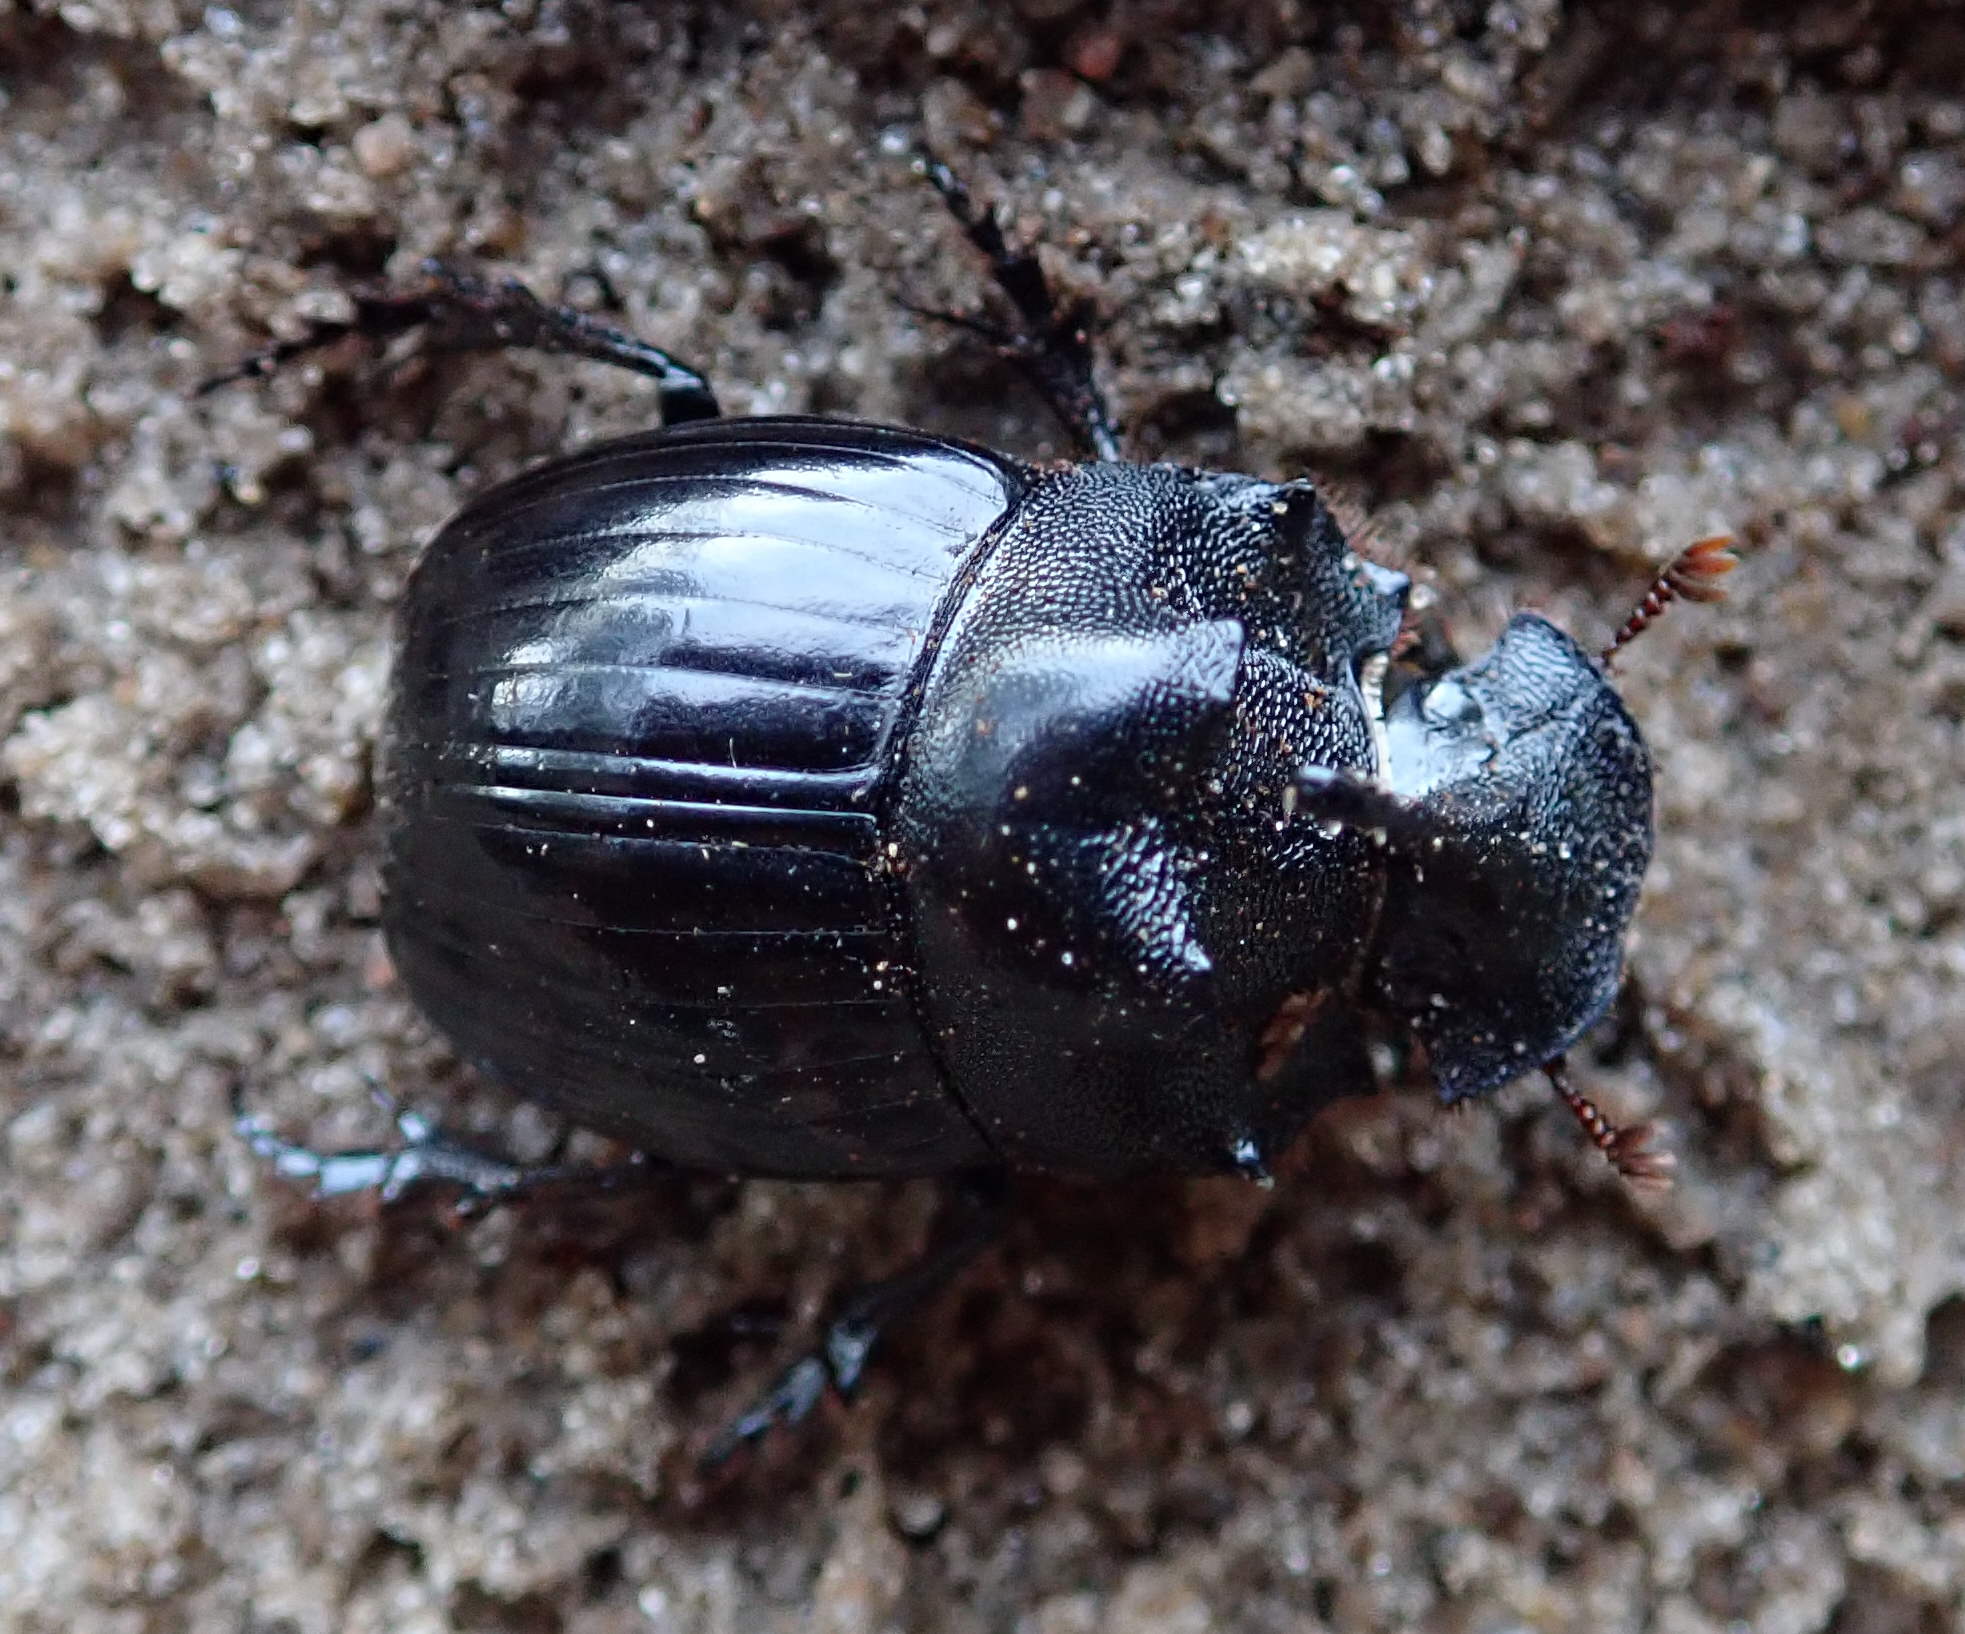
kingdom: Animalia
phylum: Arthropoda
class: Insecta
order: Coleoptera
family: Scarabaeidae
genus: Copris
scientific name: Copris elphenor
